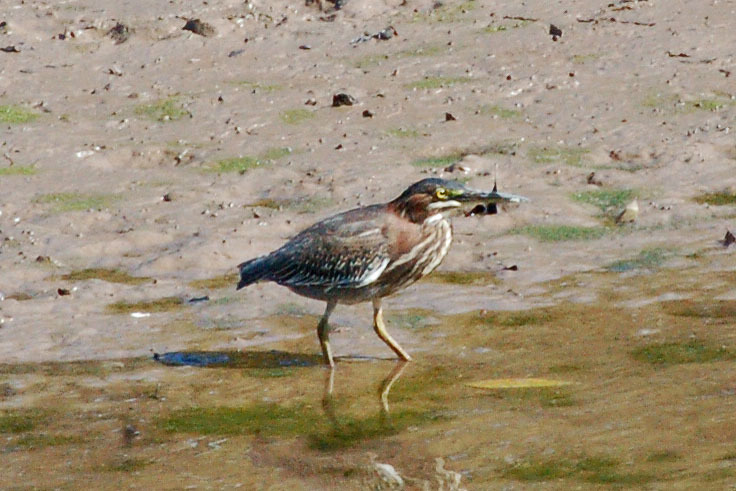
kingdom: Animalia
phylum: Chordata
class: Aves
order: Pelecaniformes
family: Ardeidae
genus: Butorides
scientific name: Butorides virescens
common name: Green heron
